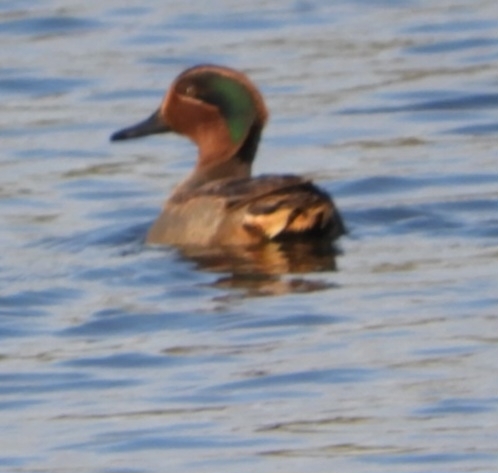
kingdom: Animalia
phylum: Chordata
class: Aves
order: Anseriformes
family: Anatidae
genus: Anas
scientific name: Anas crecca
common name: Eurasian teal
